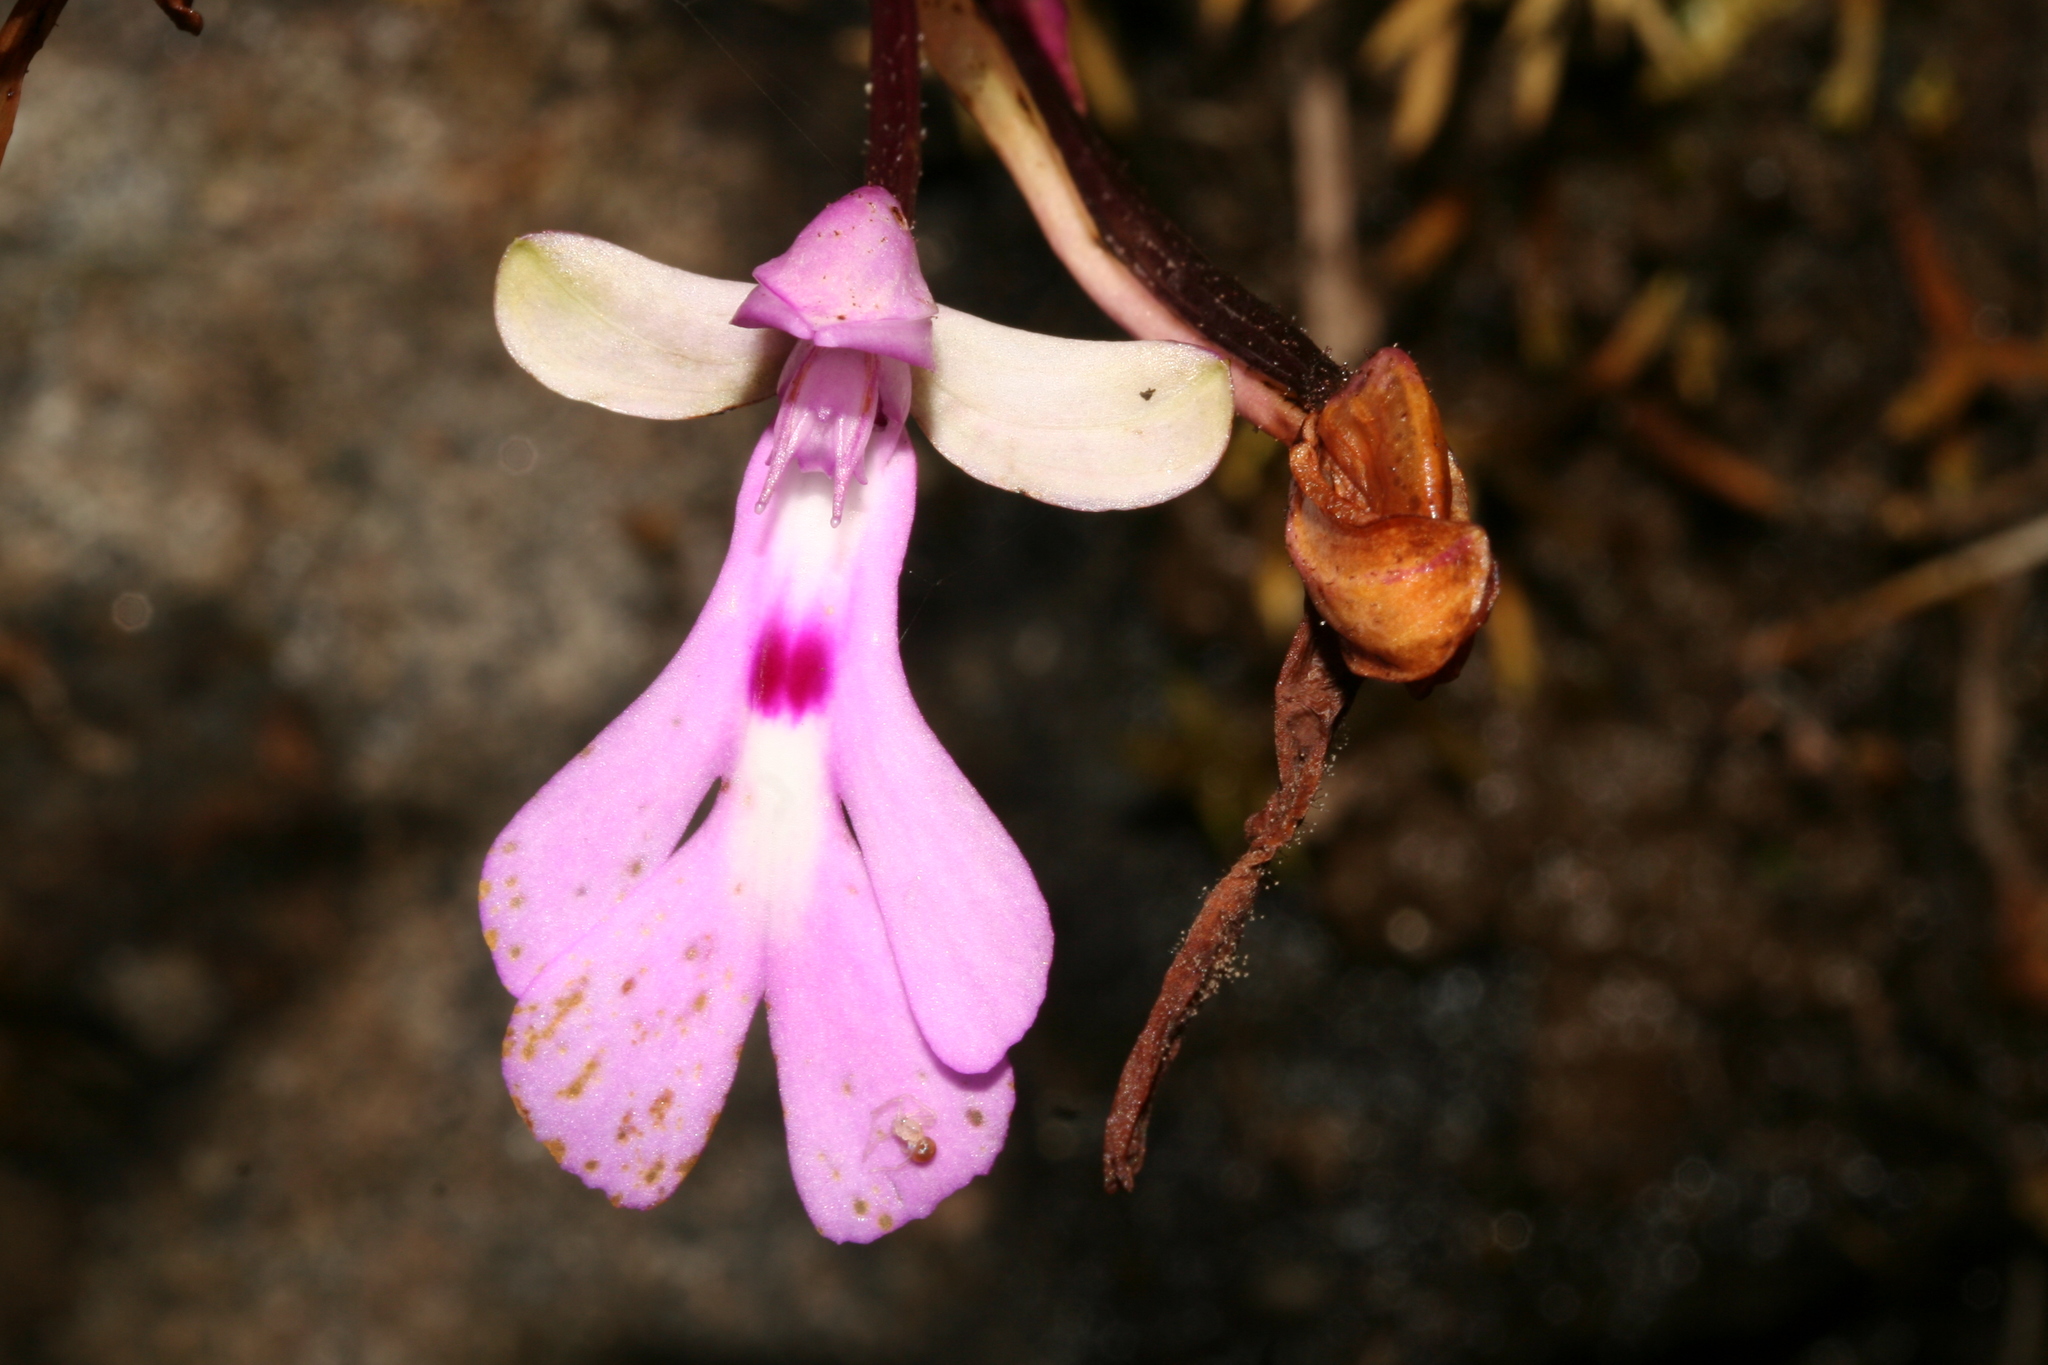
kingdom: Plantae
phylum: Tracheophyta
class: Liliopsida
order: Asparagales
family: Orchidaceae
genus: Cynorkis
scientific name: Cynorkis lowiana
